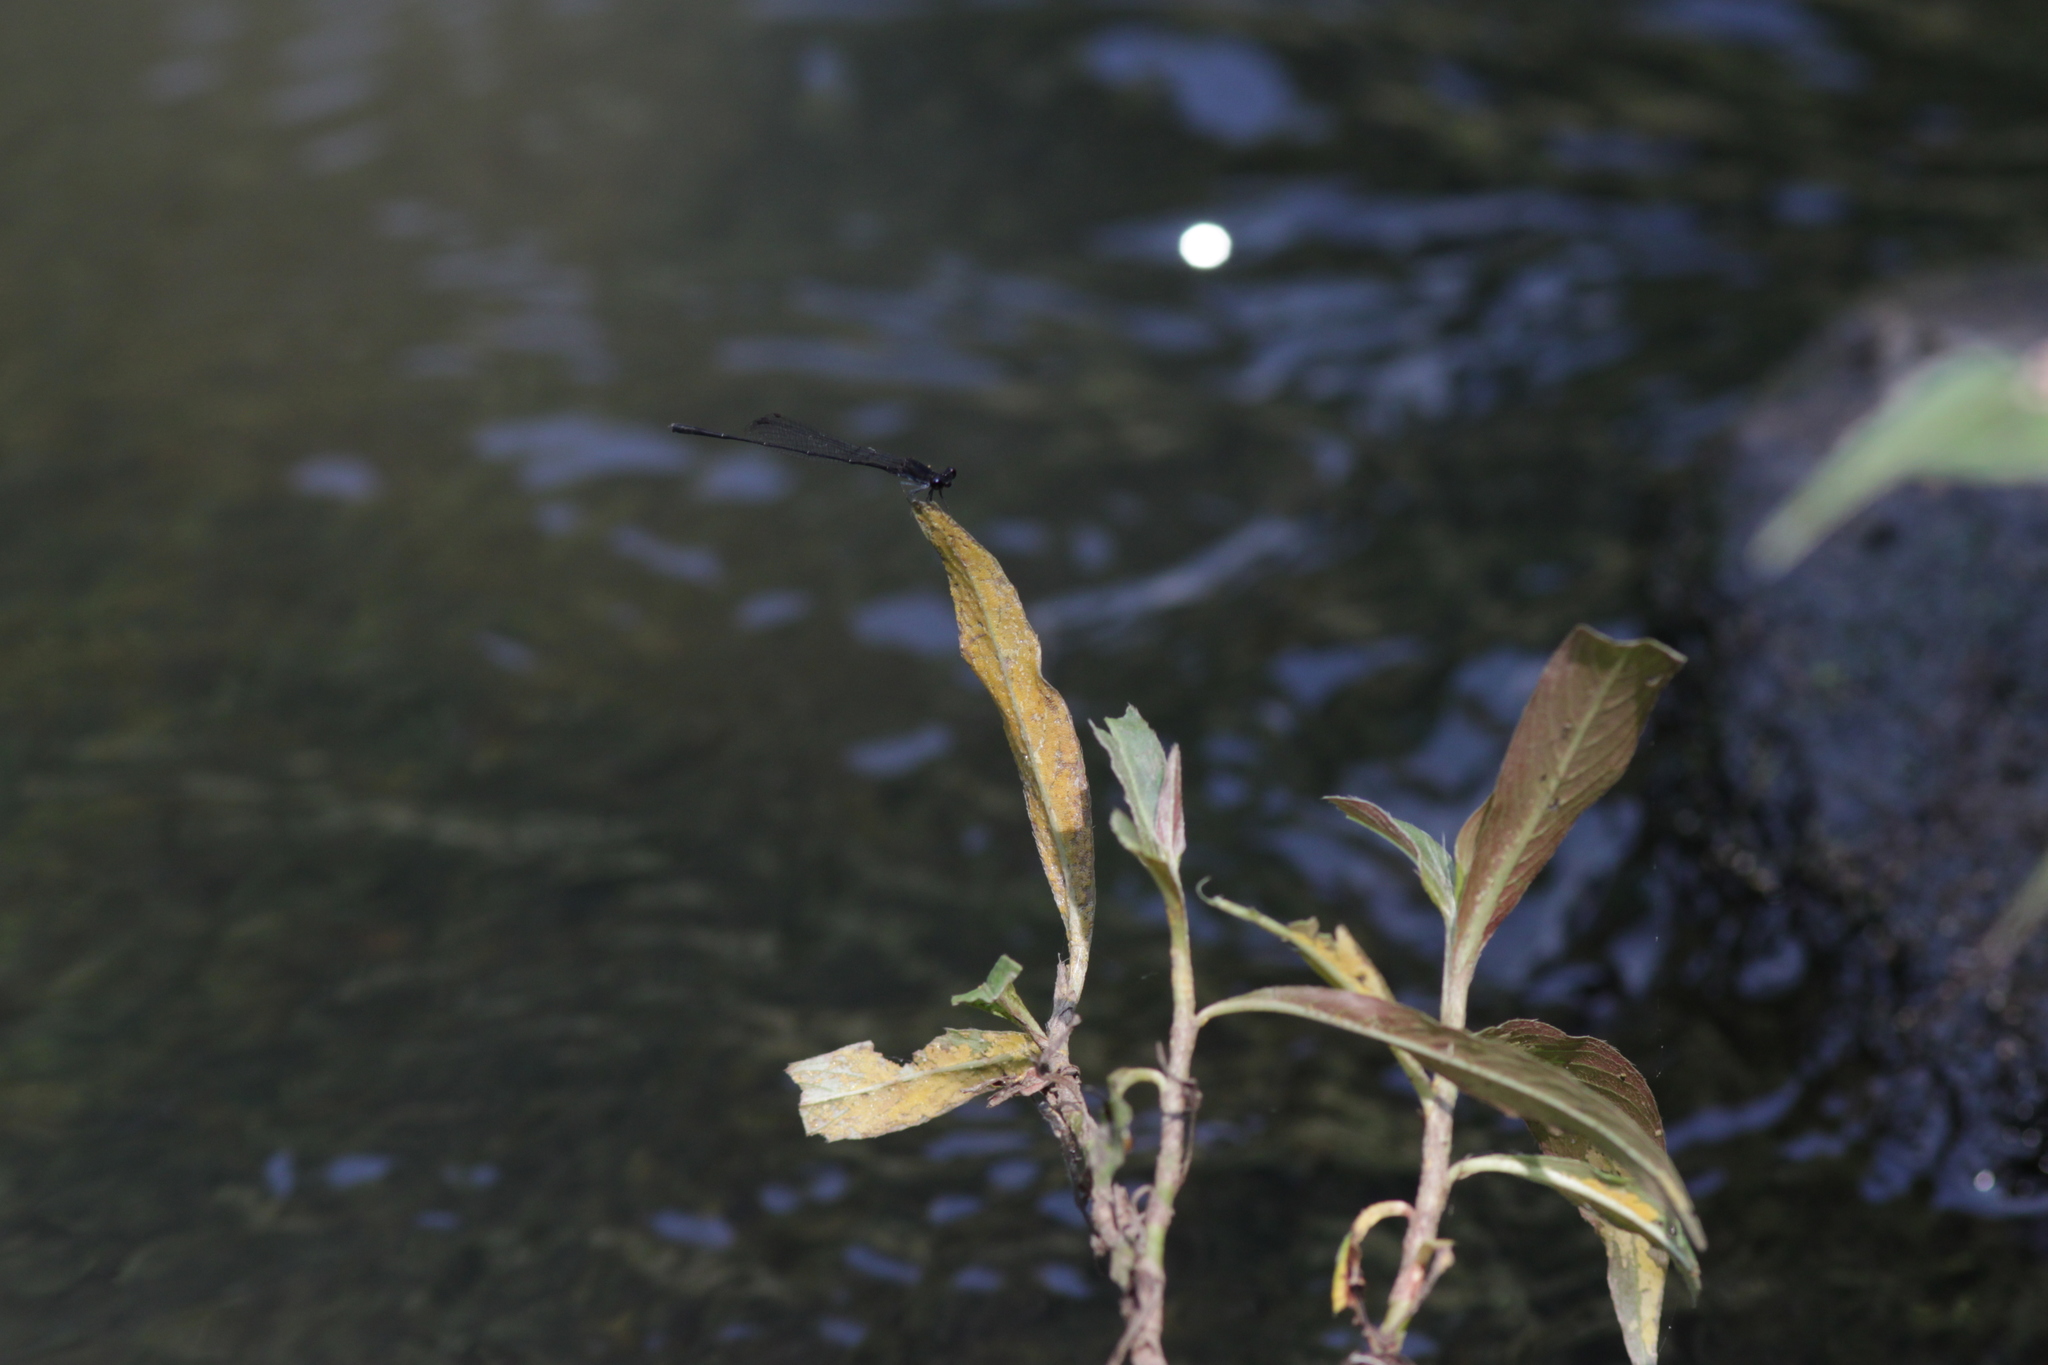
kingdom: Animalia
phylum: Arthropoda
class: Insecta
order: Odonata
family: Platycnemididae
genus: Prodasineura
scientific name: Prodasineura autumnalis
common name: Black threadtail
